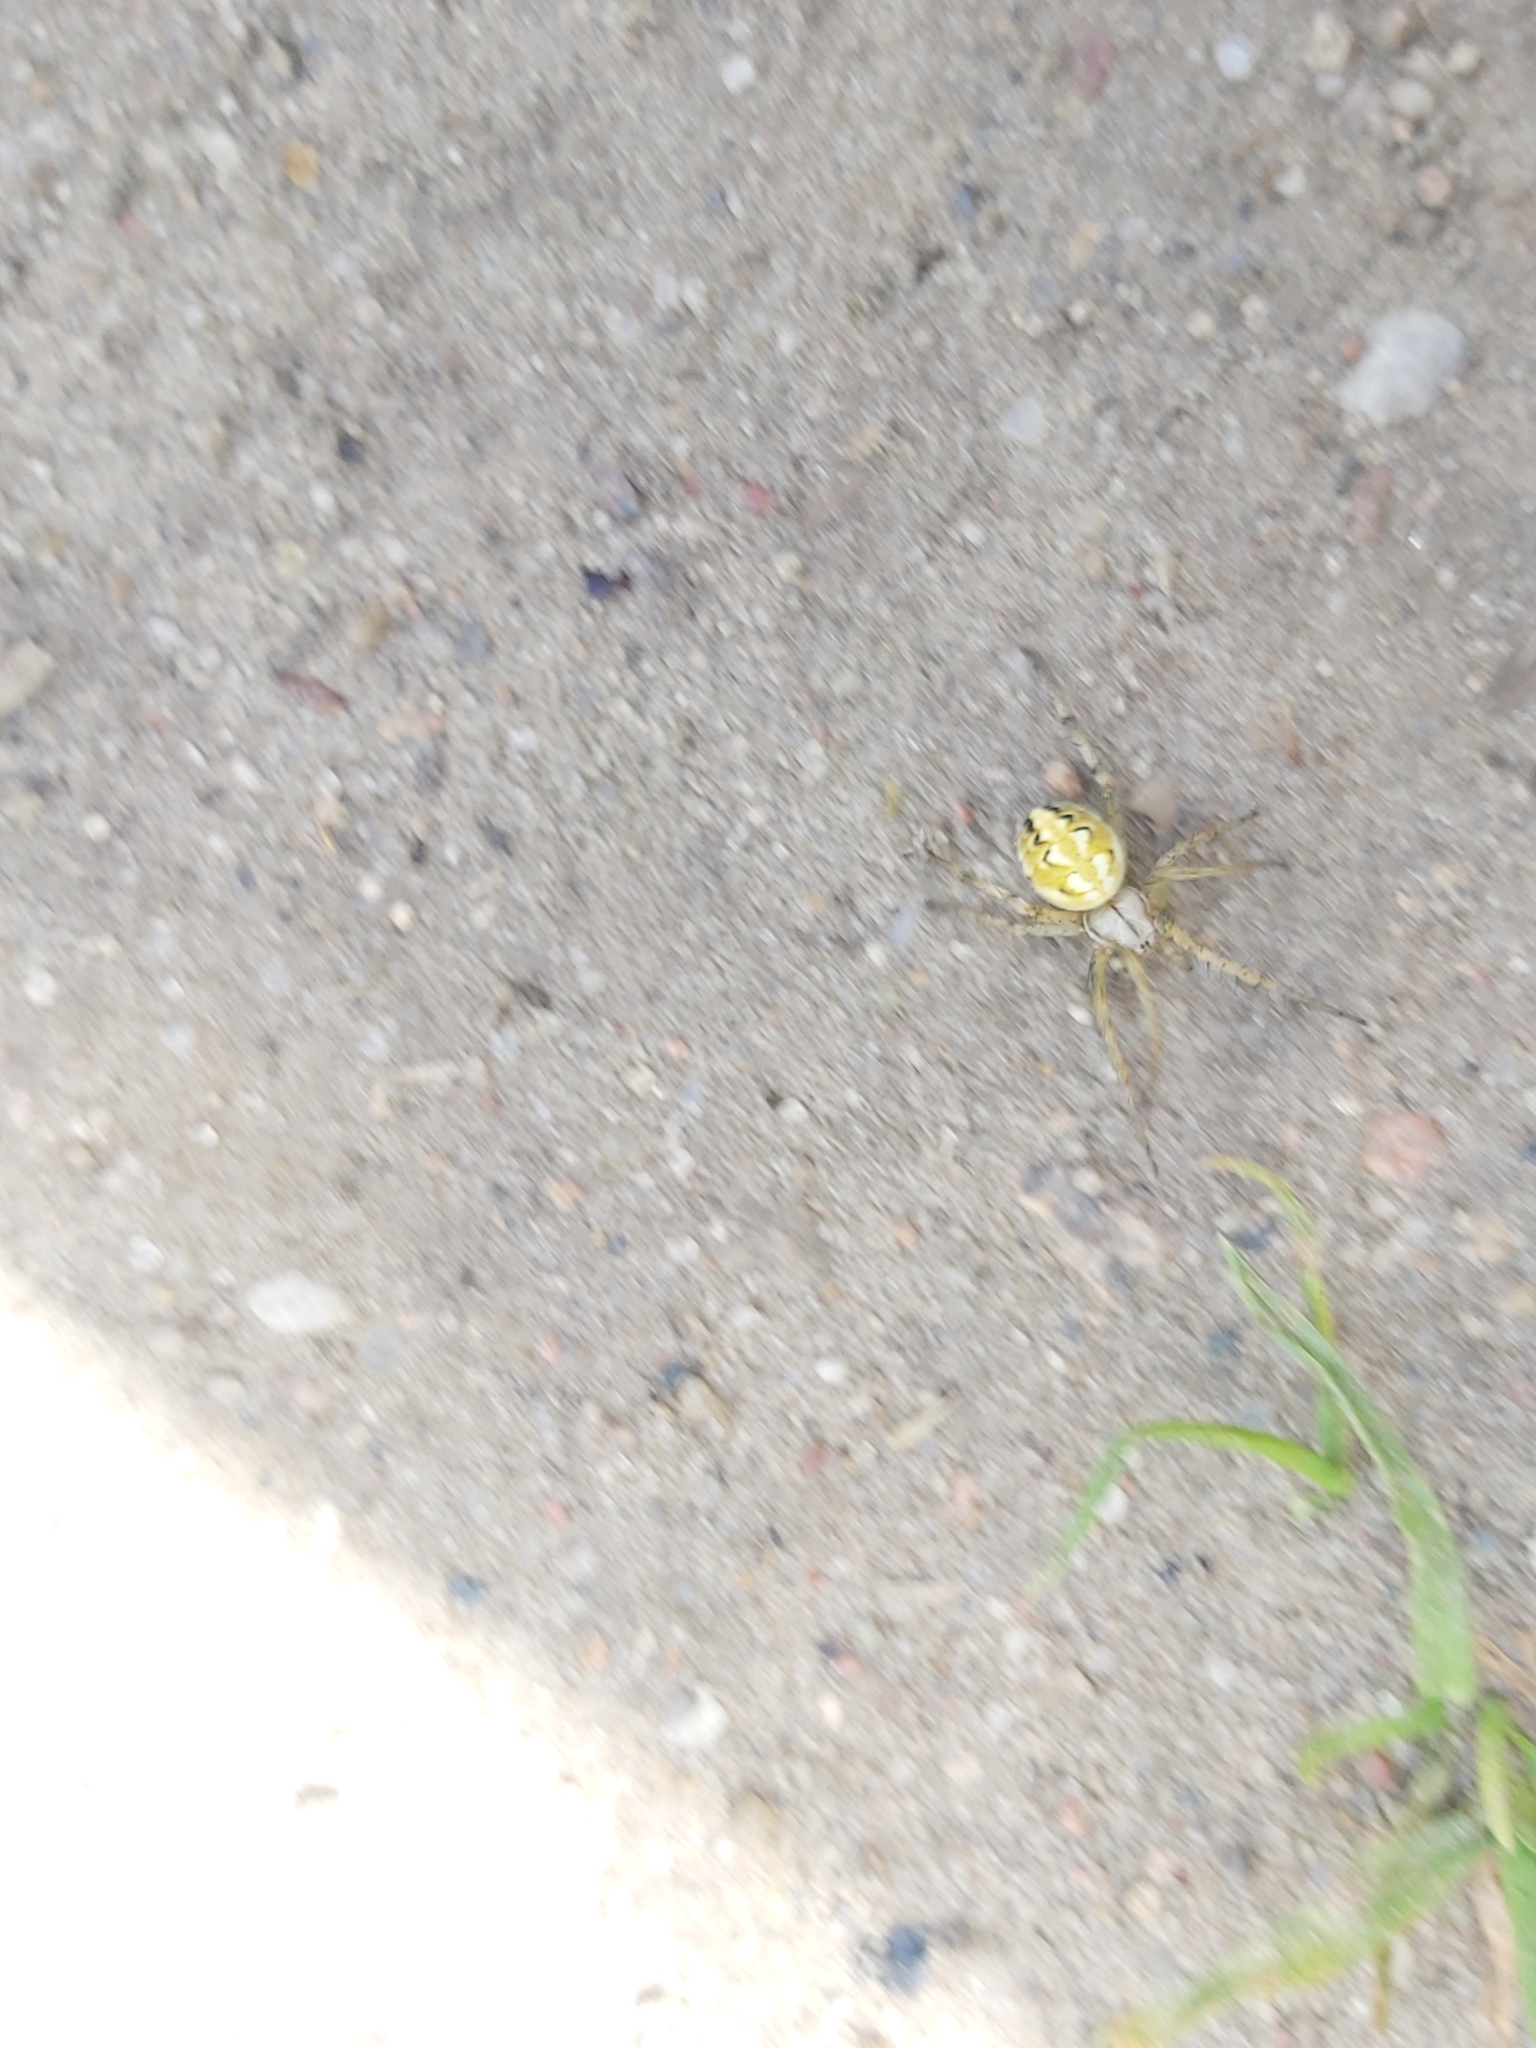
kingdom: Animalia
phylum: Arthropoda
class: Arachnida
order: Araneae
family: Araneidae
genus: Neoscona
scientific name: Neoscona adianta
